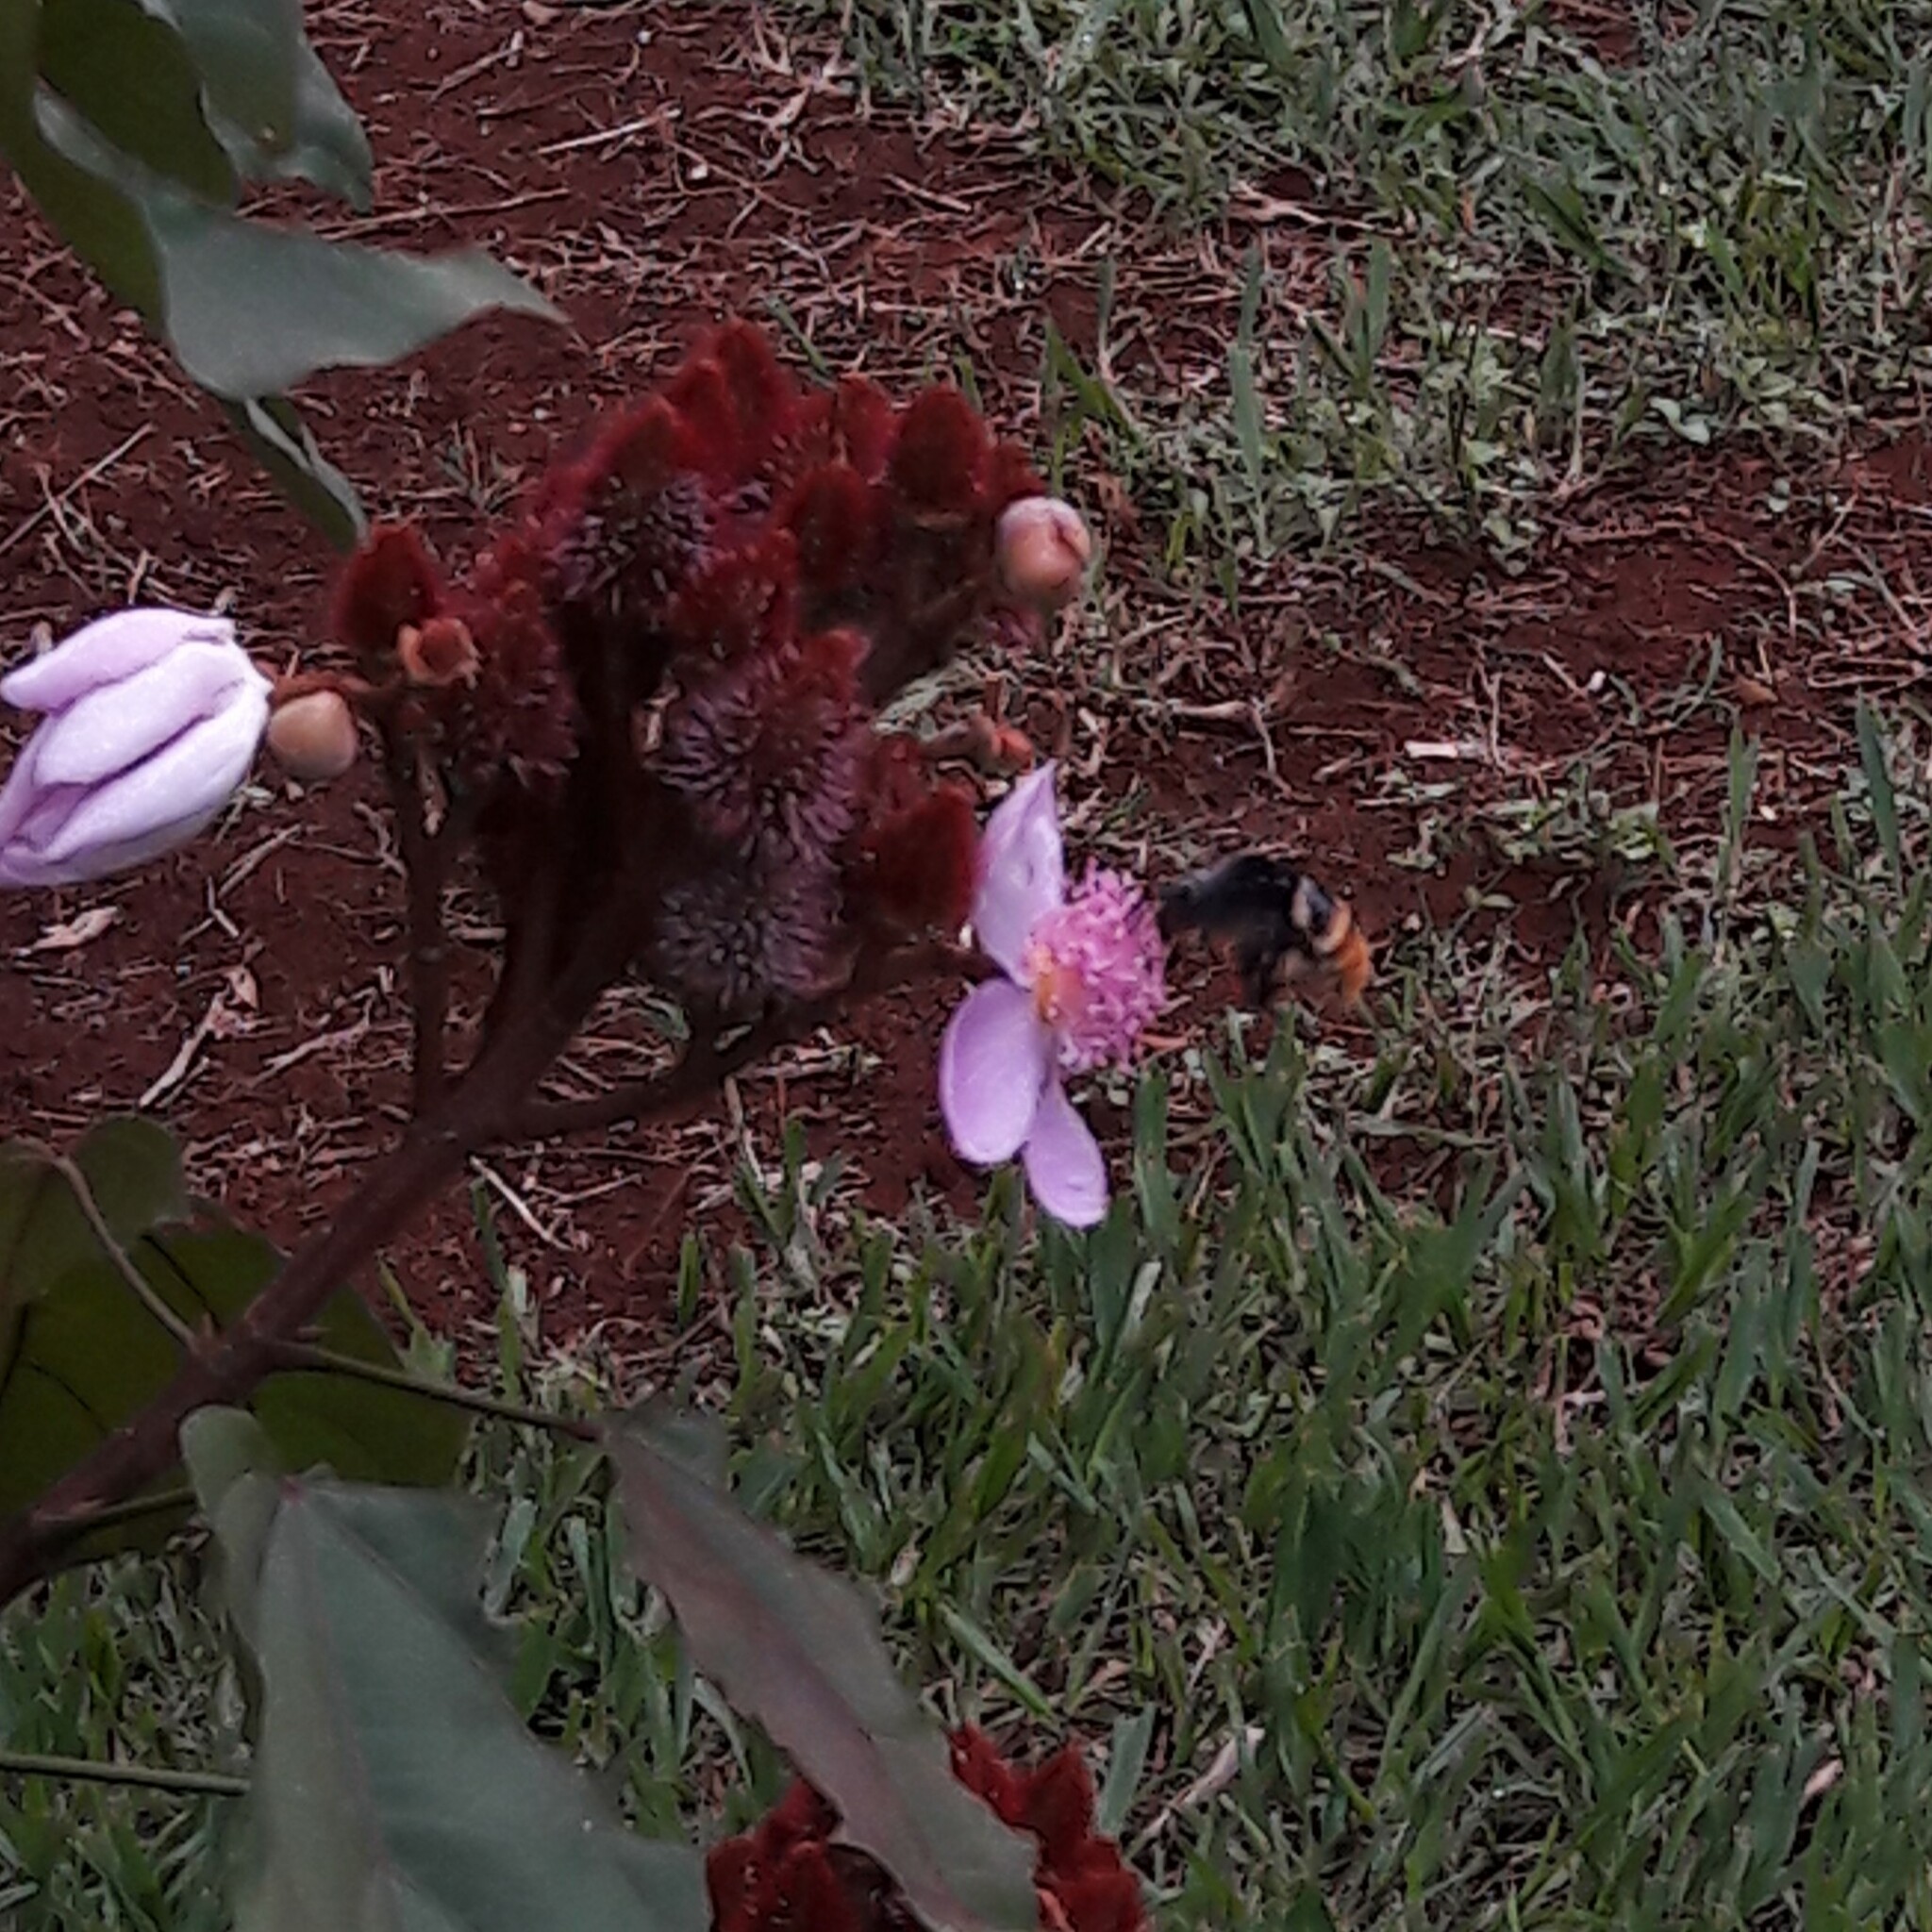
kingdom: Animalia
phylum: Arthropoda
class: Insecta
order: Hymenoptera
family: Apidae
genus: Eulaema
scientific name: Eulaema cingulata
